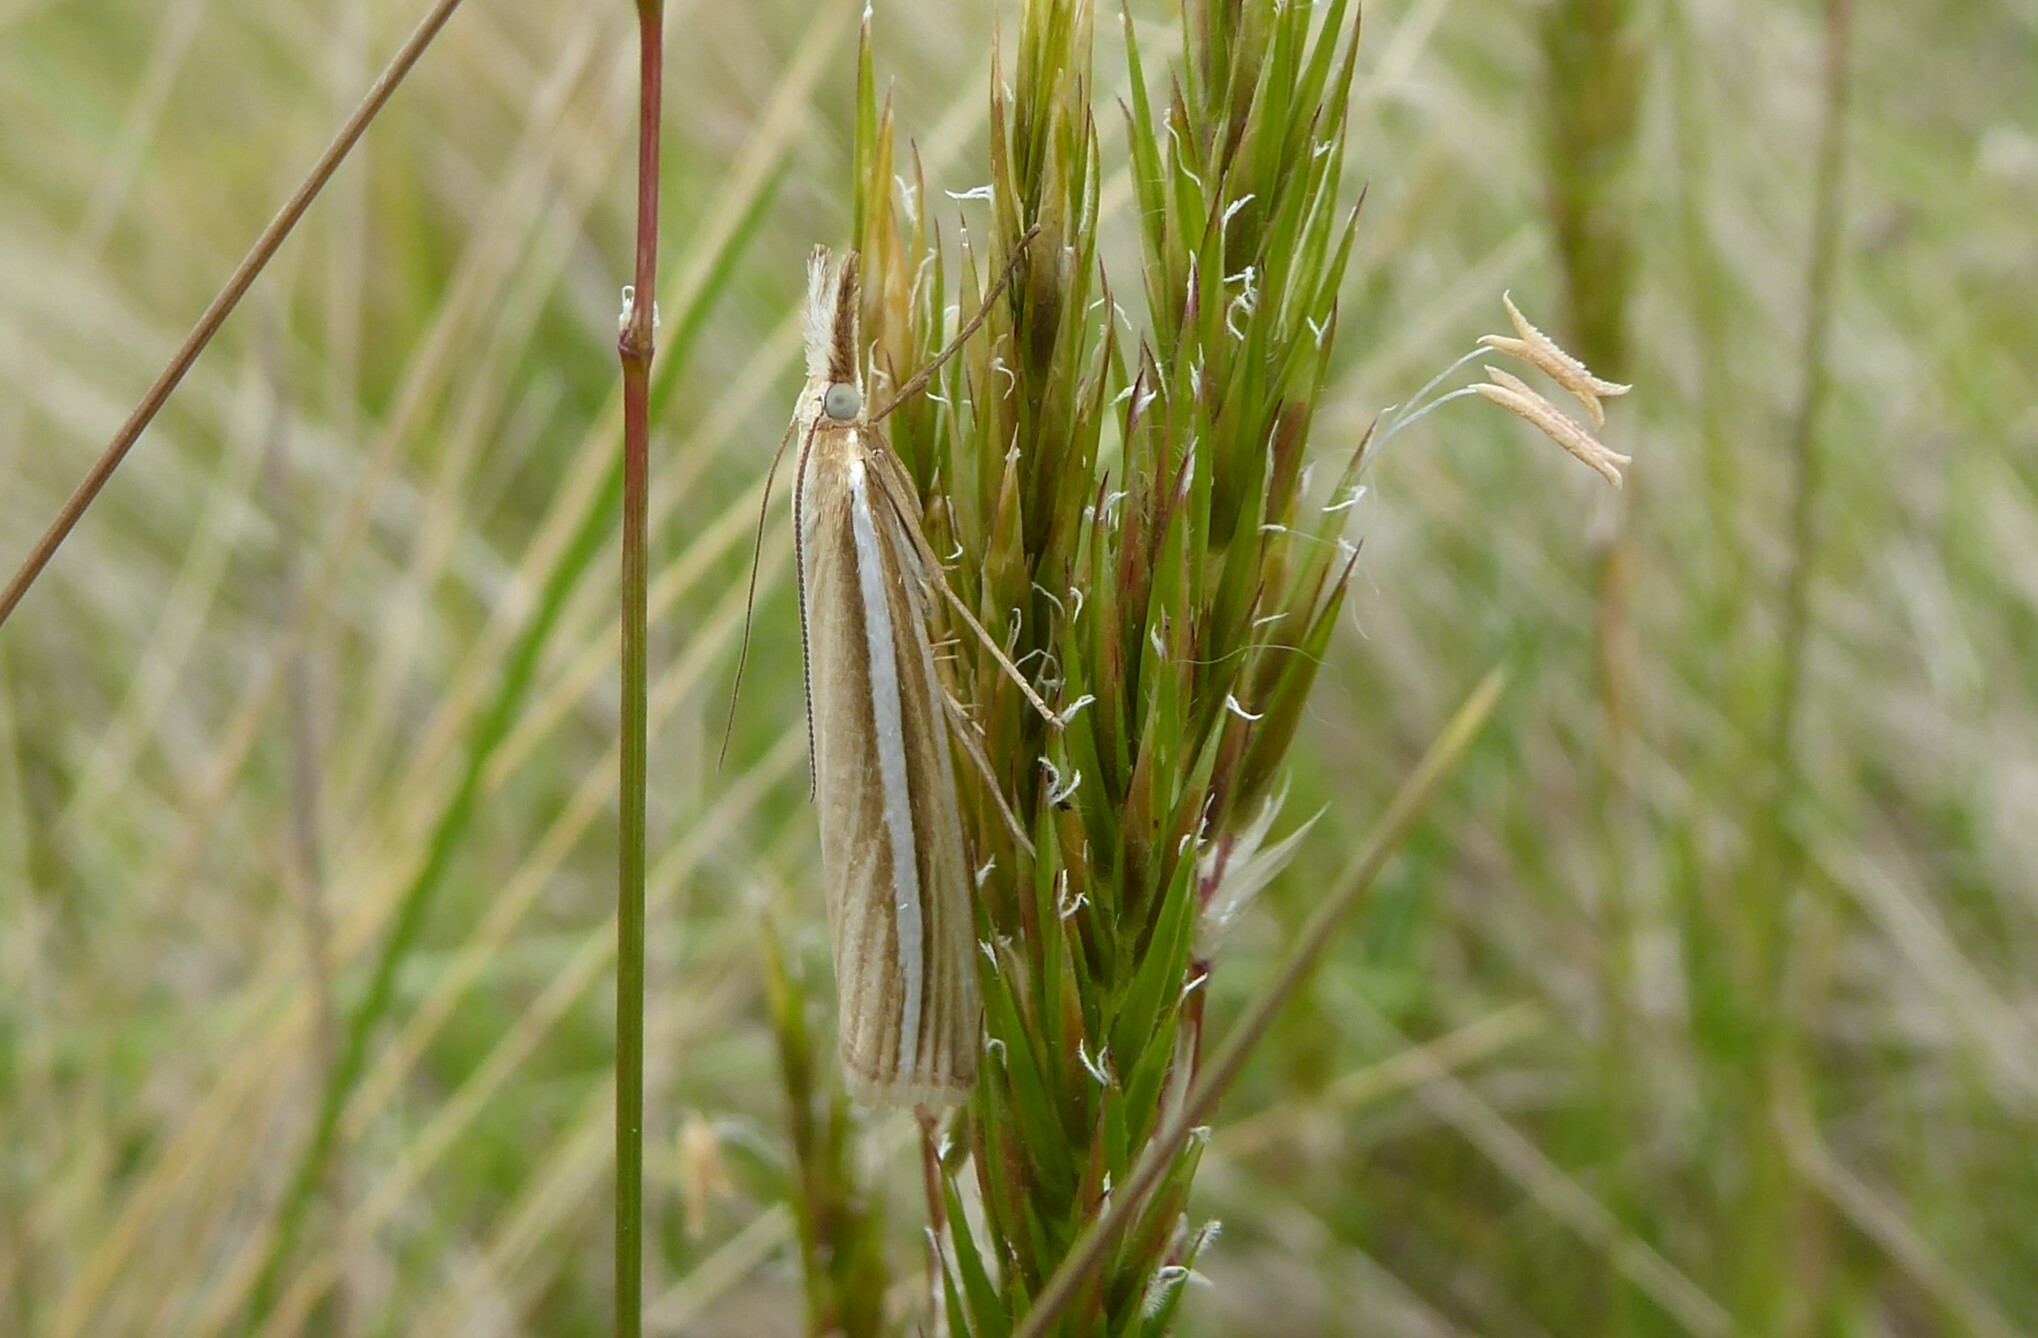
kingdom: Animalia
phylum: Arthropoda
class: Insecta
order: Lepidoptera
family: Crambidae
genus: Orocrambus
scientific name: Orocrambus lewisi
